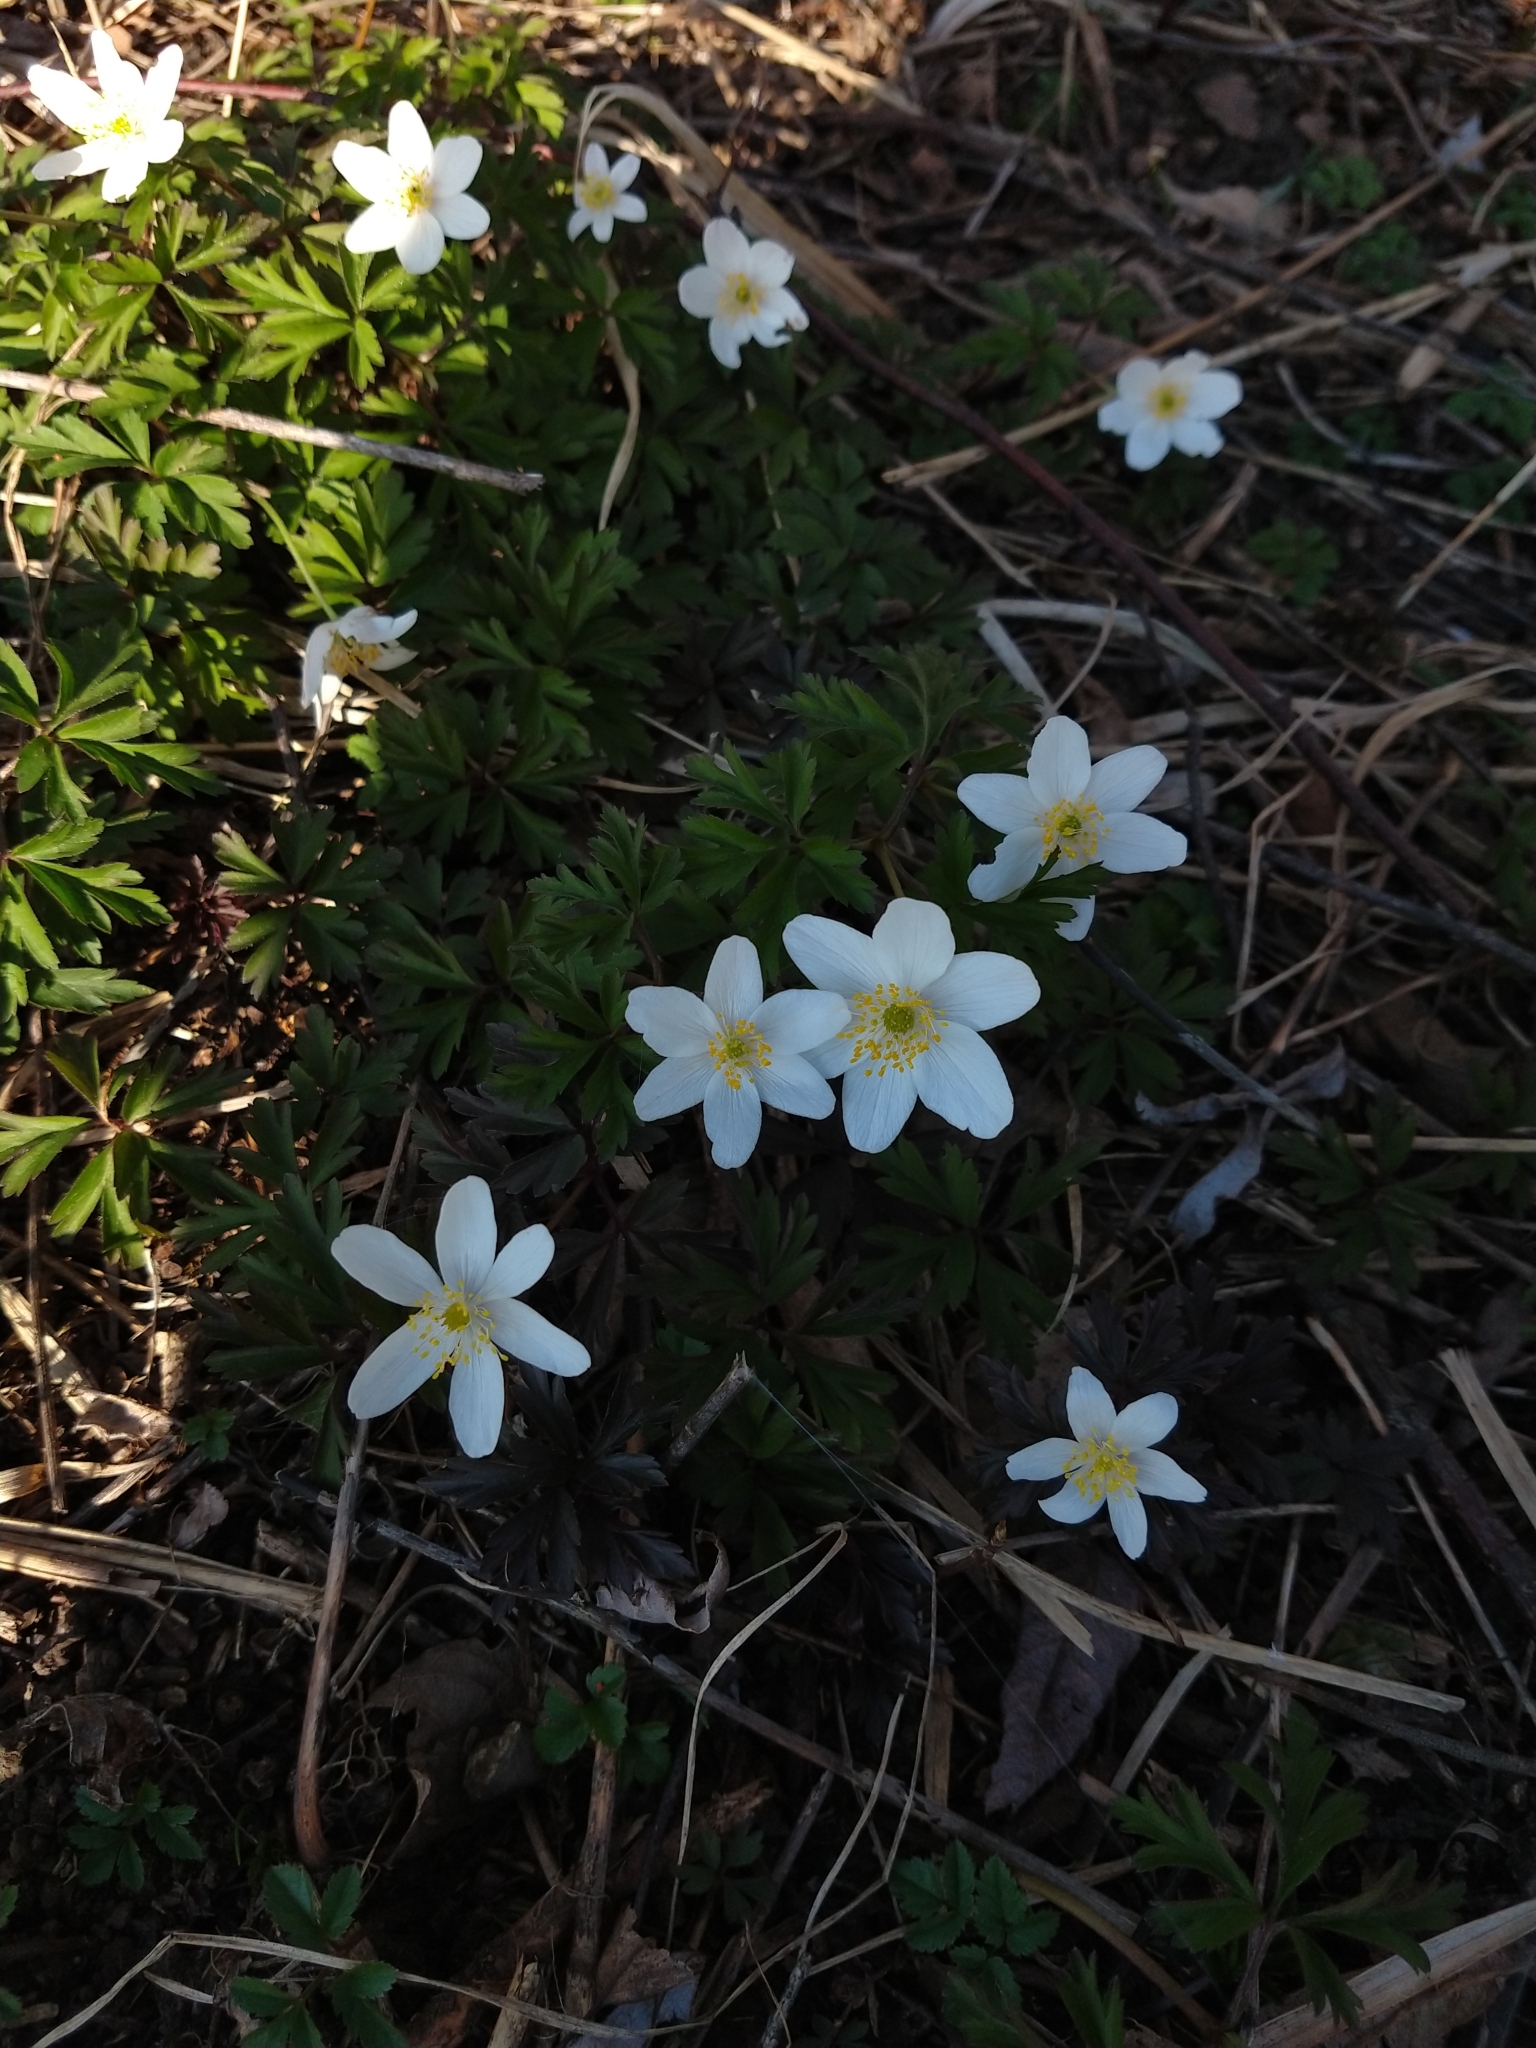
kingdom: Plantae
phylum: Tracheophyta
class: Magnoliopsida
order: Ranunculales
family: Ranunculaceae
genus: Anemone
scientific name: Anemone nemorosa
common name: Wood anemone
